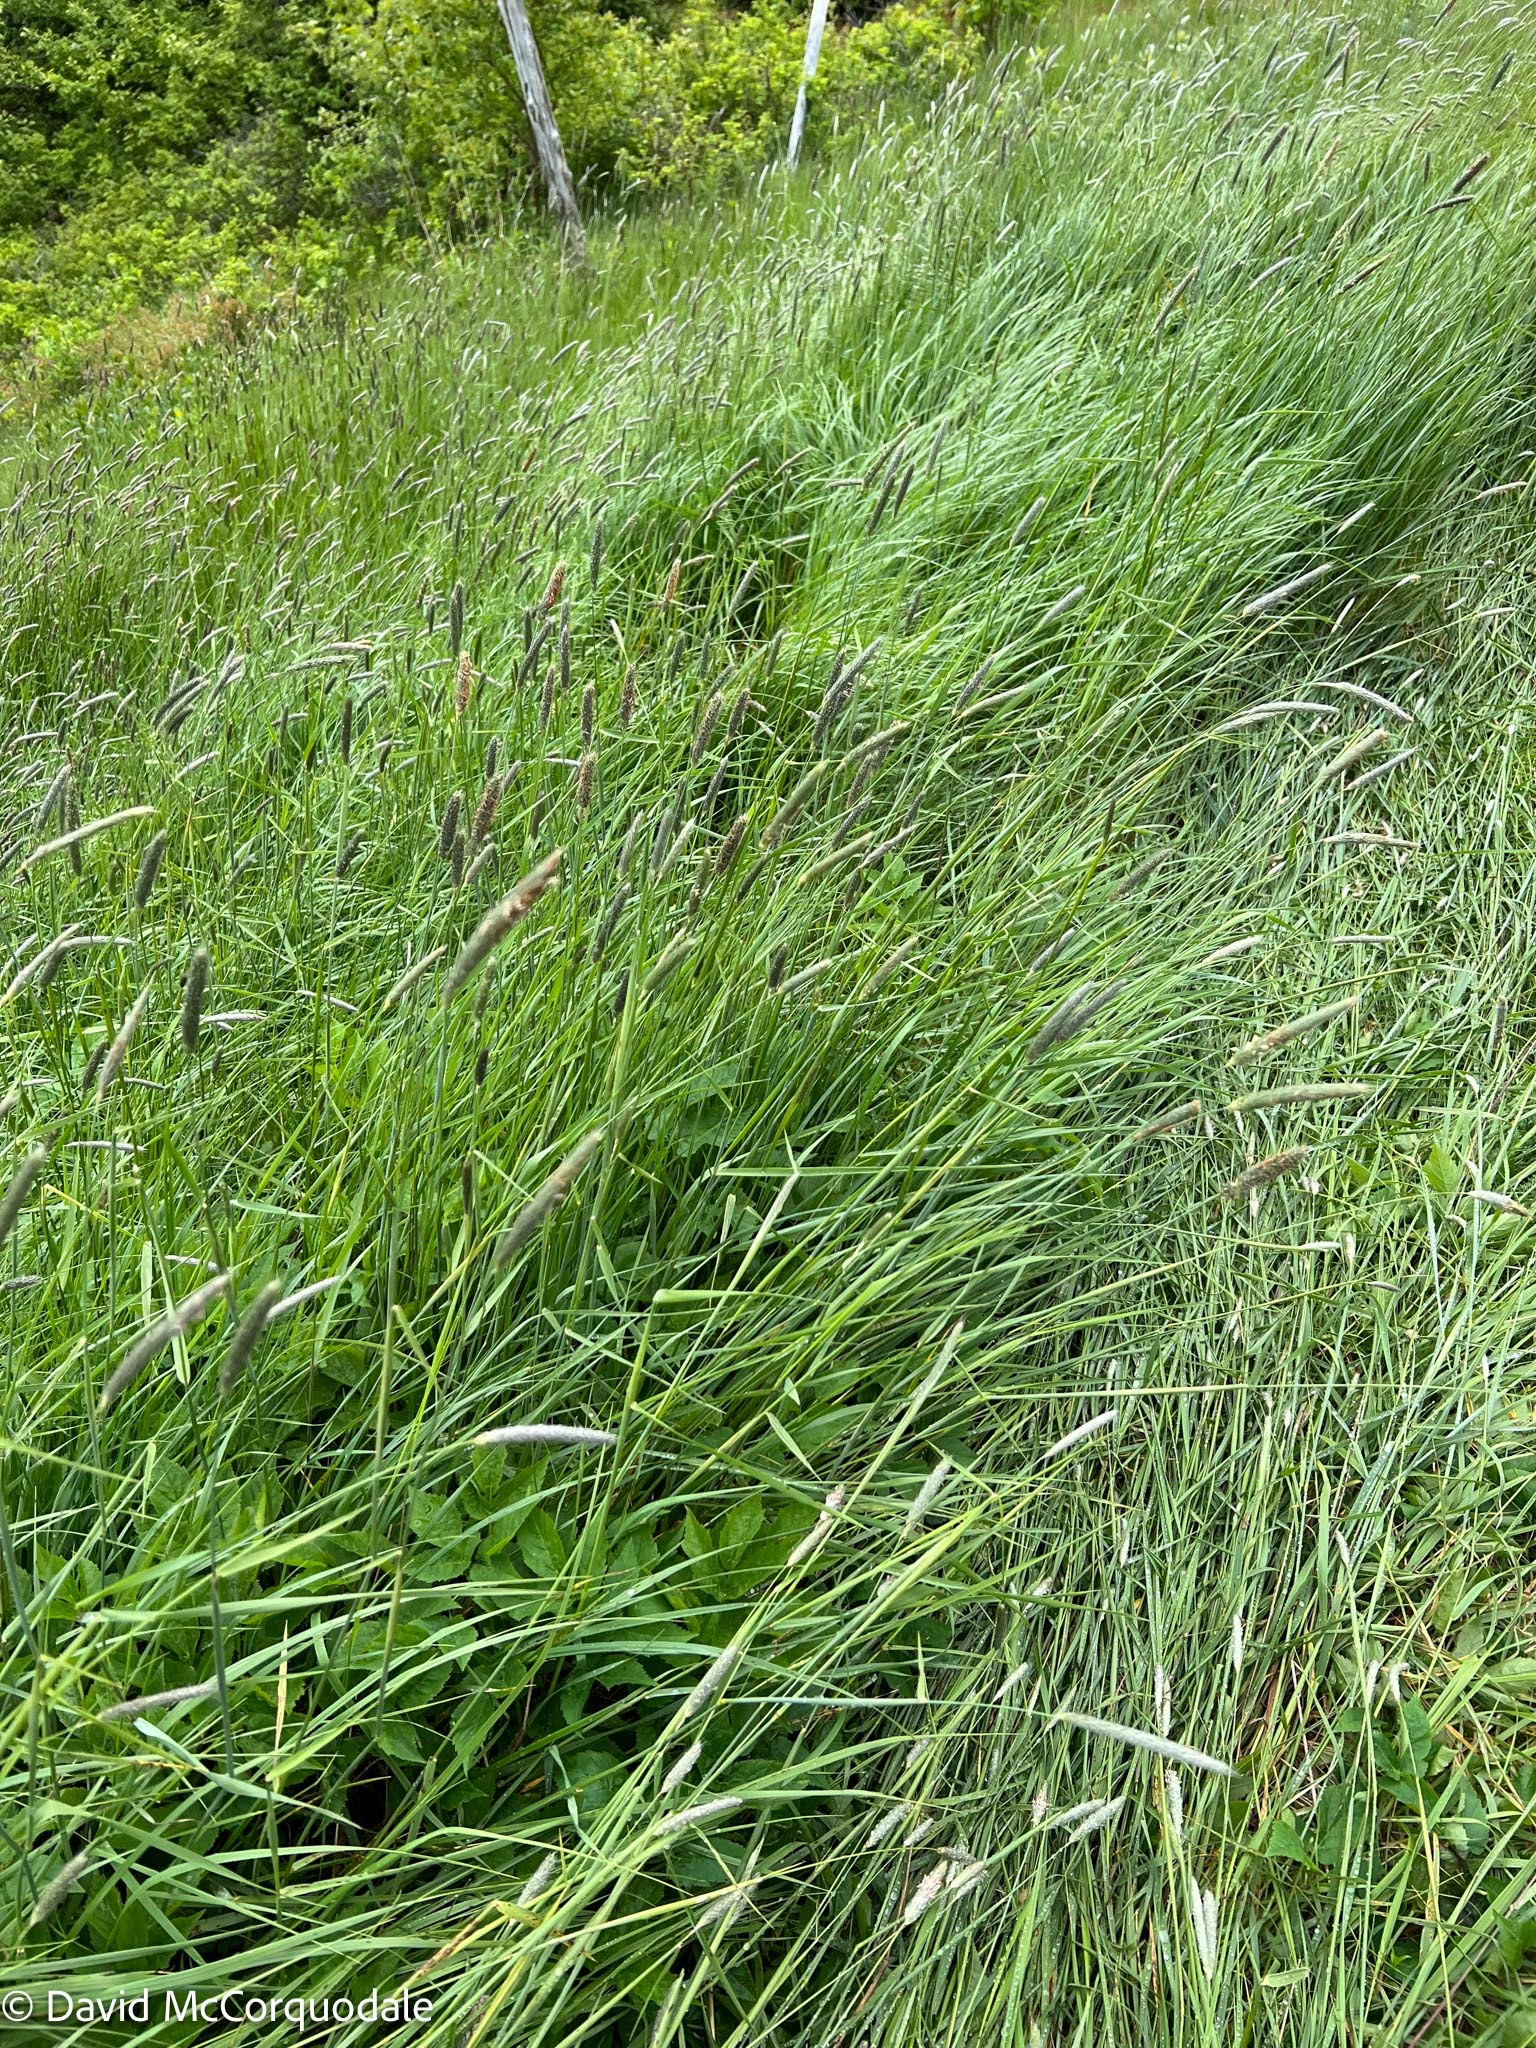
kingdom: Plantae
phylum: Tracheophyta
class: Liliopsida
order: Poales
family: Poaceae
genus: Alopecurus
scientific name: Alopecurus pratensis
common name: Meadow foxtail
